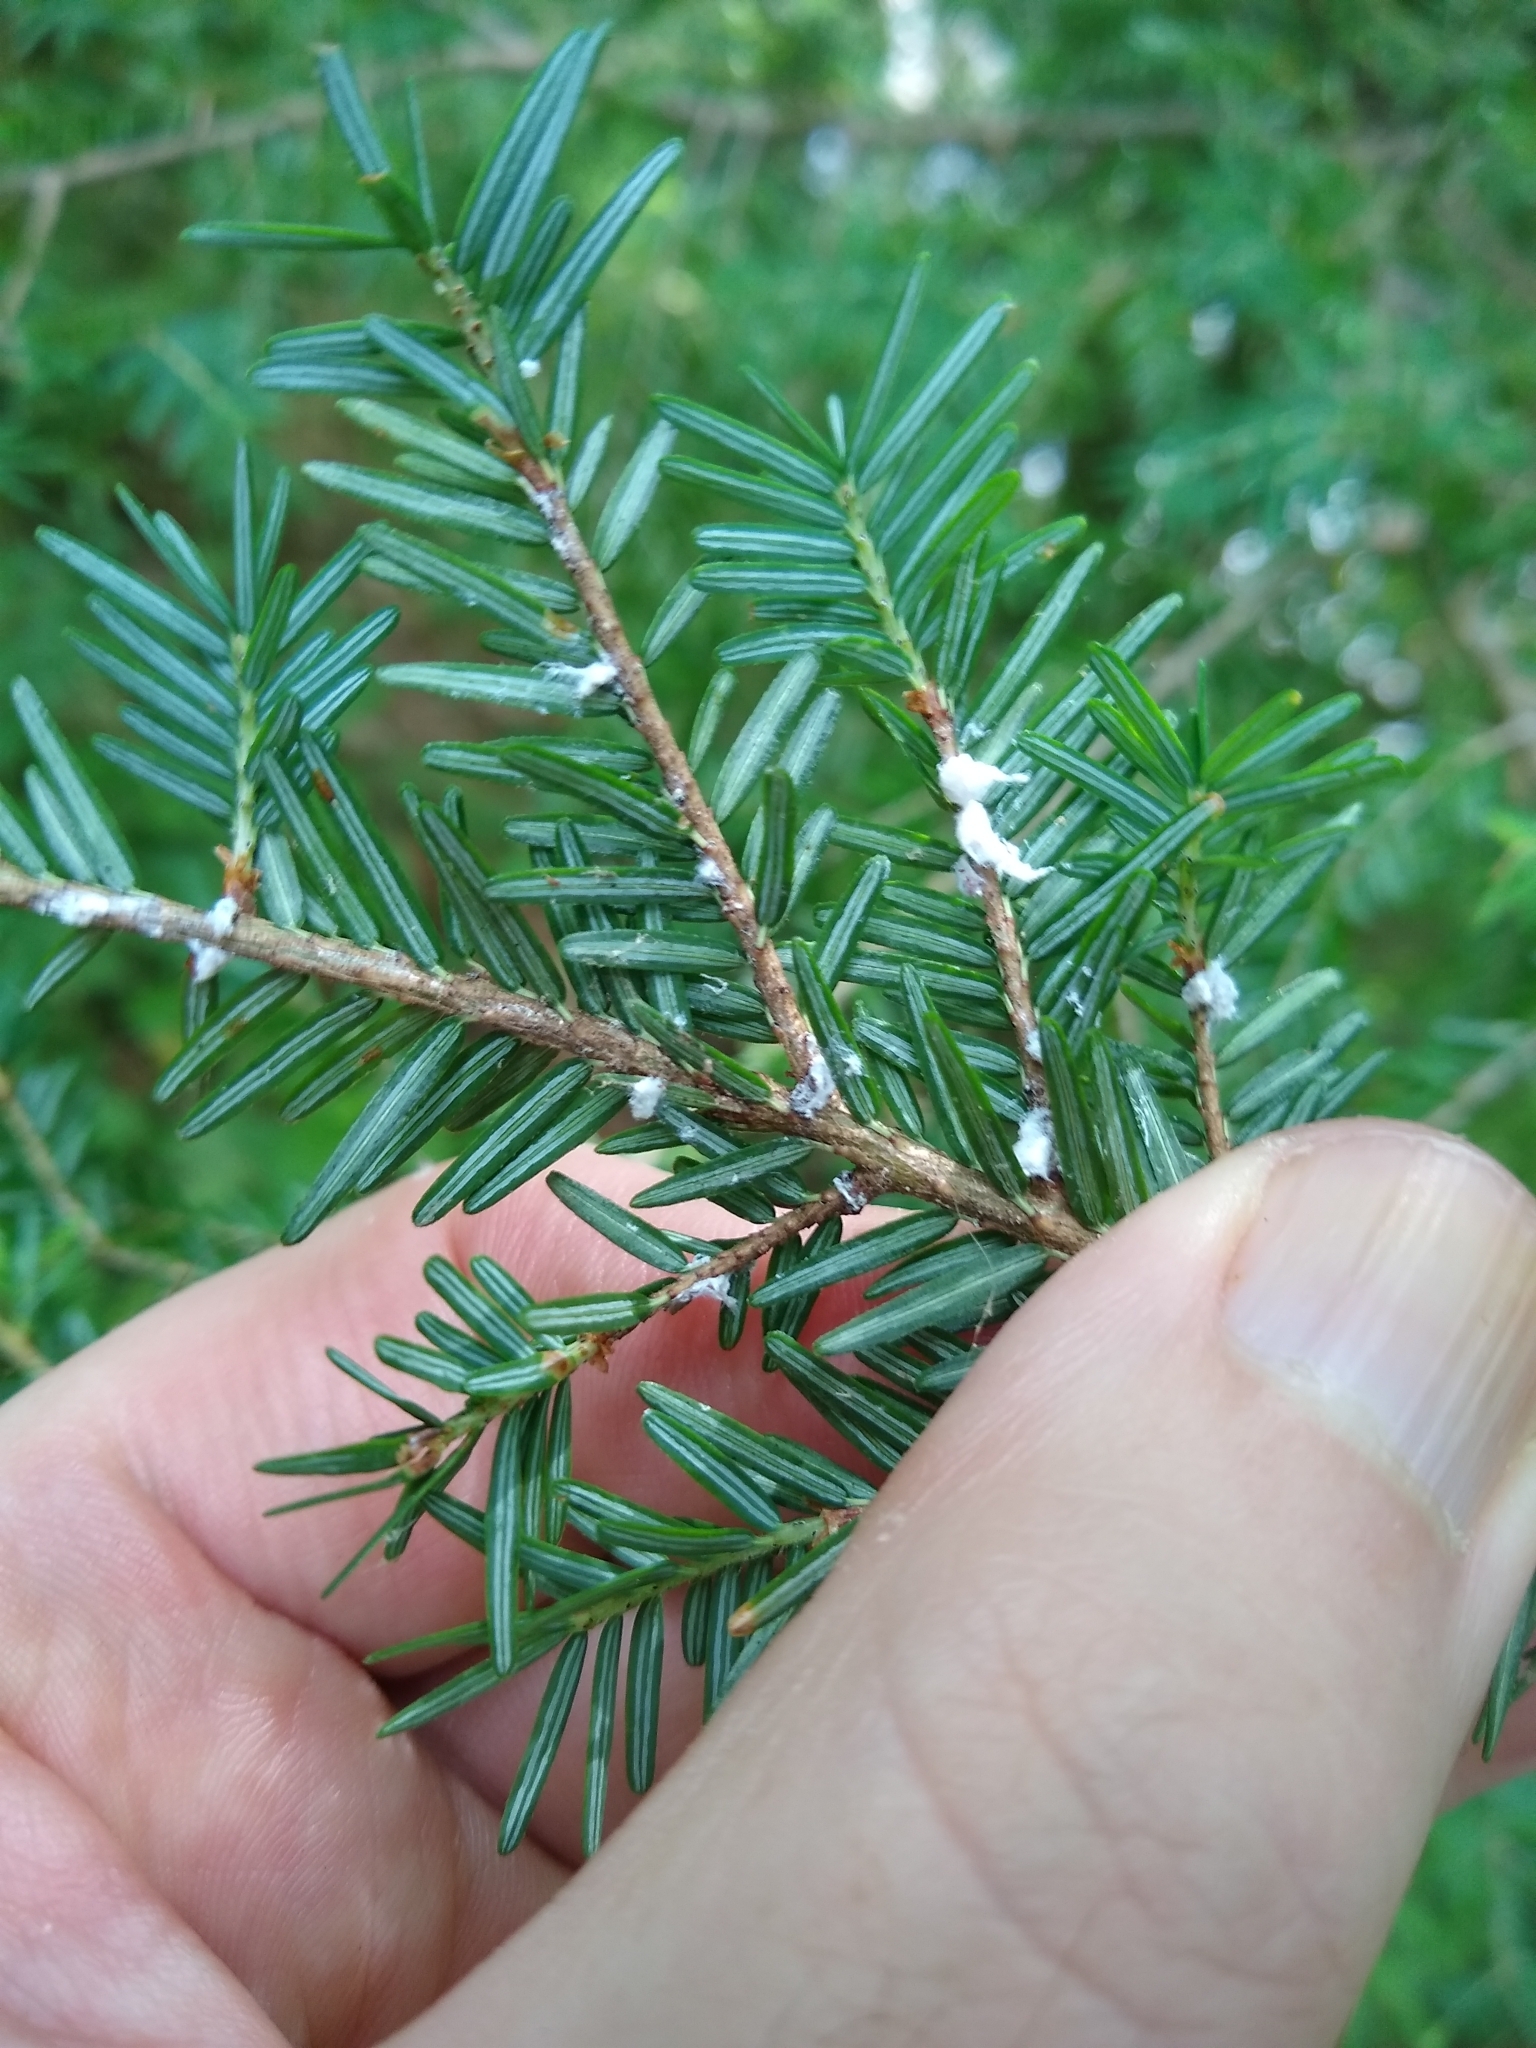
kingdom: Animalia
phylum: Arthropoda
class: Insecta
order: Hemiptera
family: Adelgidae
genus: Adelges
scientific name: Adelges tsugae
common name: Hemlock woolly adelgid
